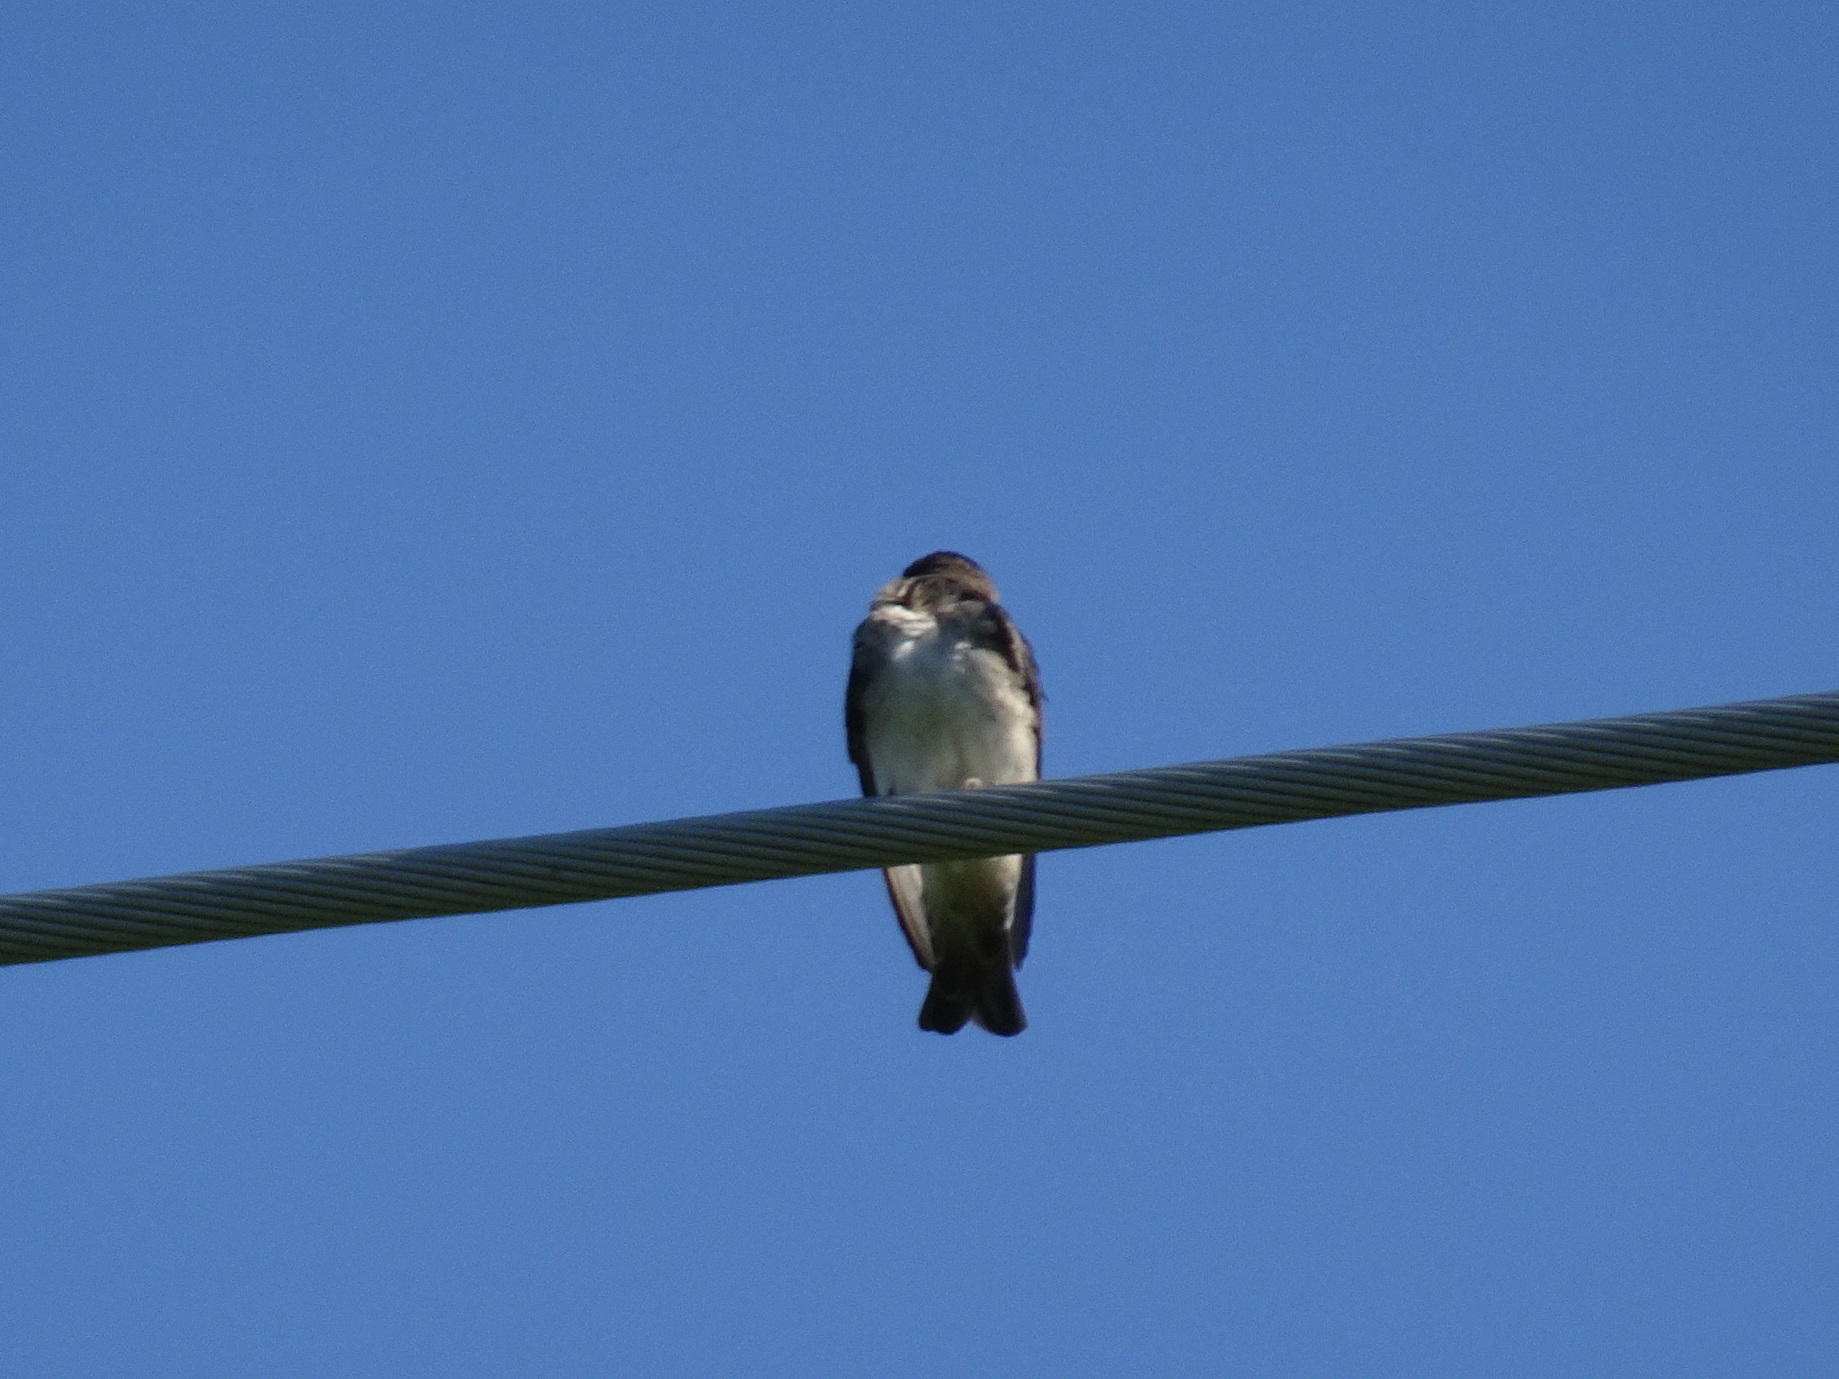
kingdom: Animalia
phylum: Chordata
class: Aves
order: Passeriformes
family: Hirundinidae
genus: Petrochelidon
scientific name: Petrochelidon pyrrhonota
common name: American cliff swallow
